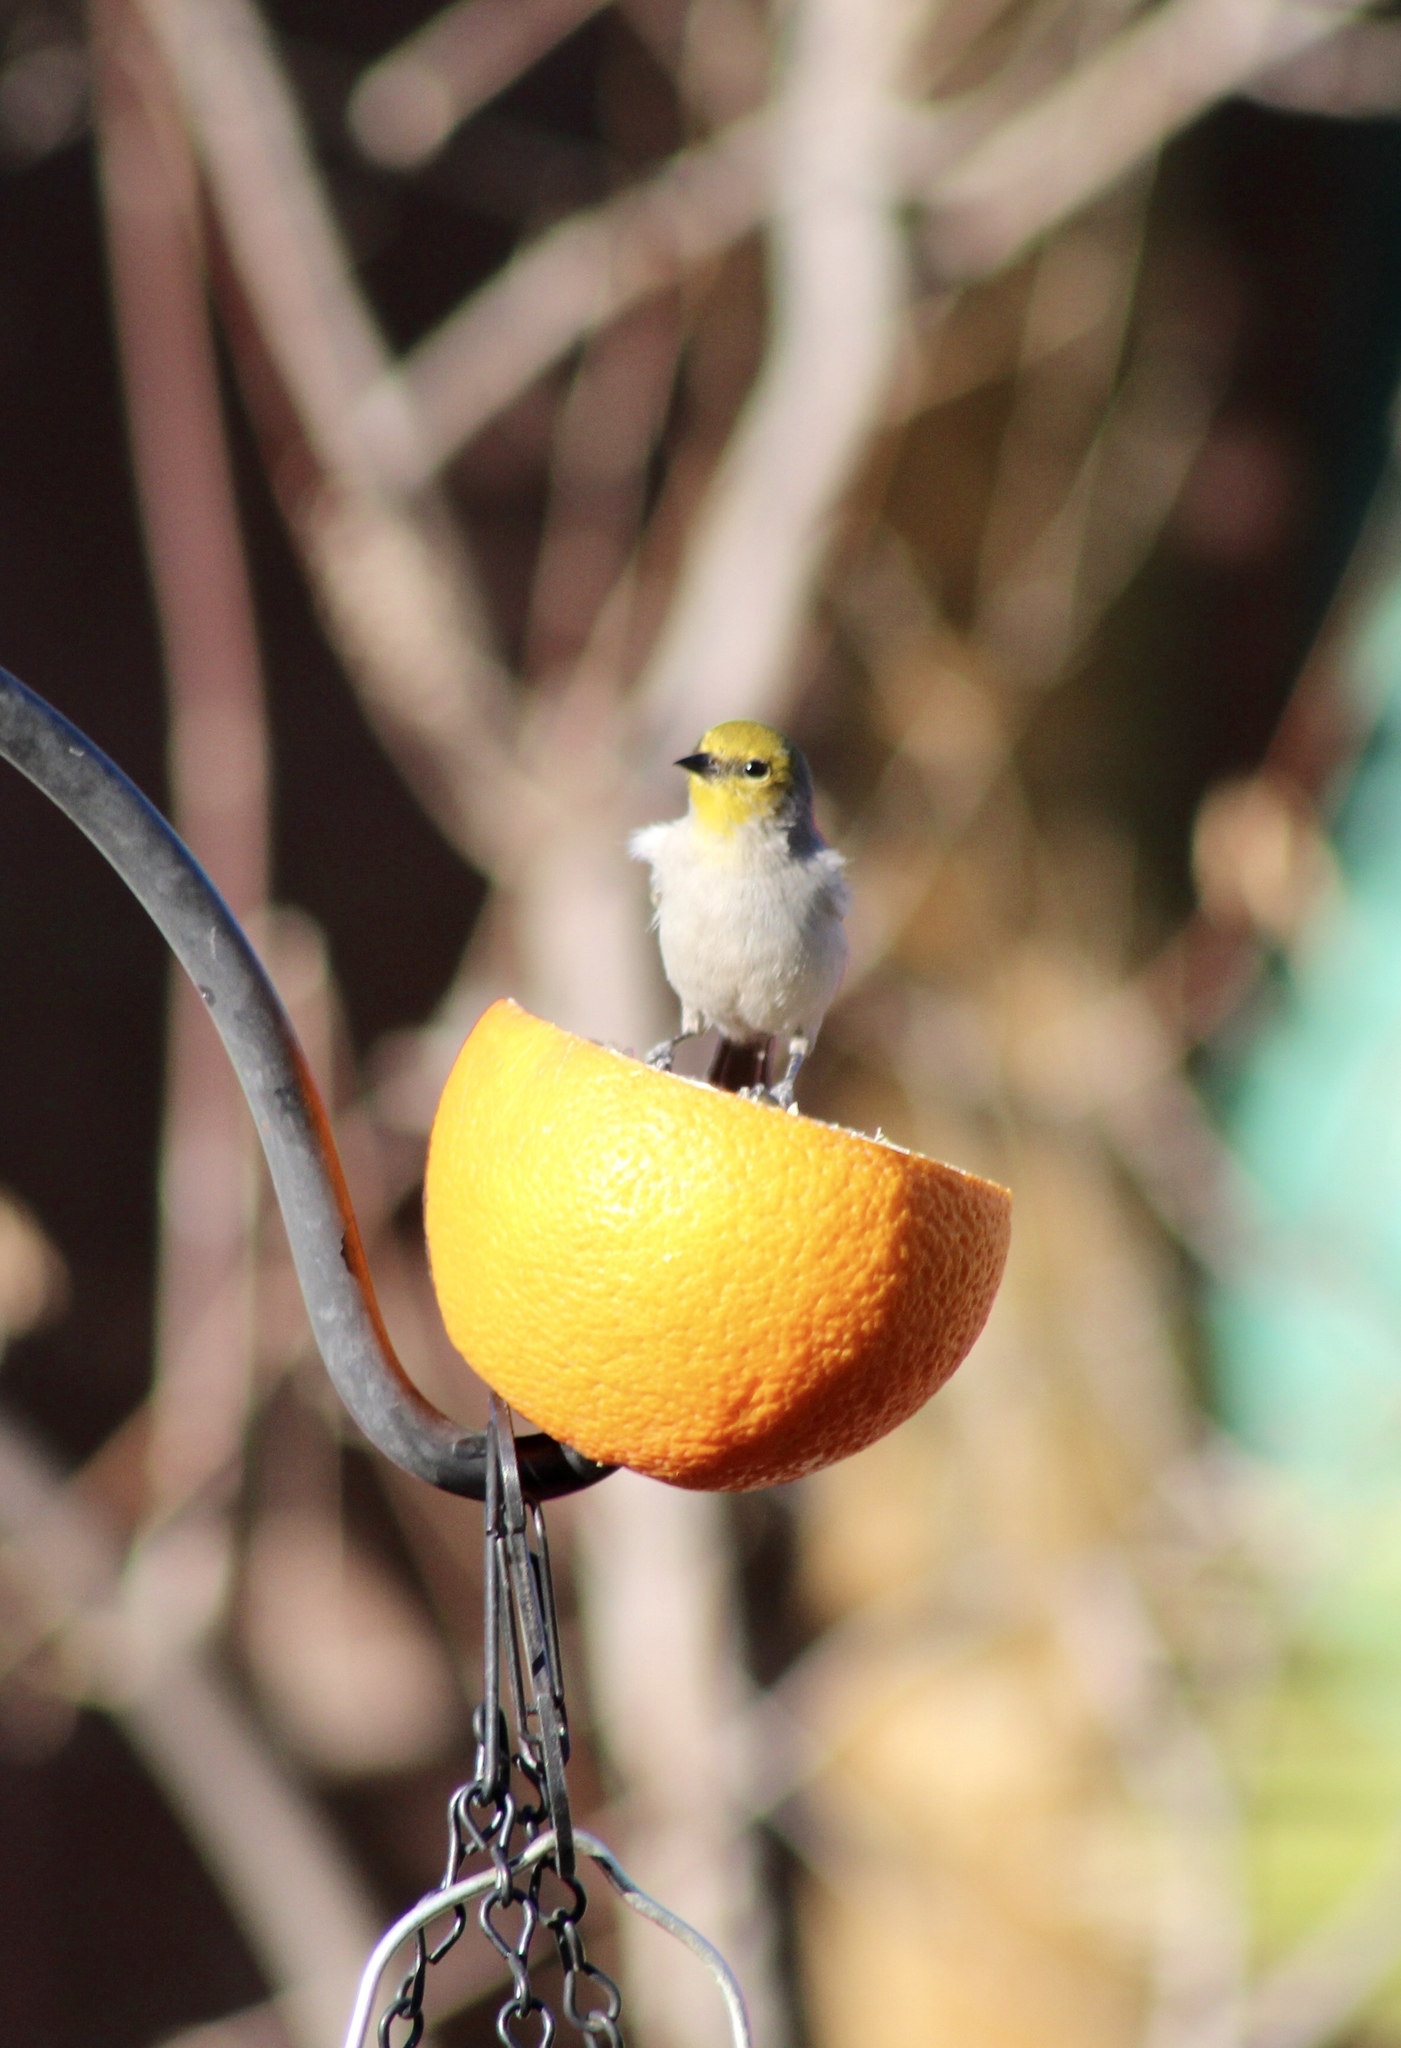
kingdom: Animalia
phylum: Chordata
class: Aves
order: Passeriformes
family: Remizidae
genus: Auriparus
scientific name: Auriparus flaviceps
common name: Verdin
